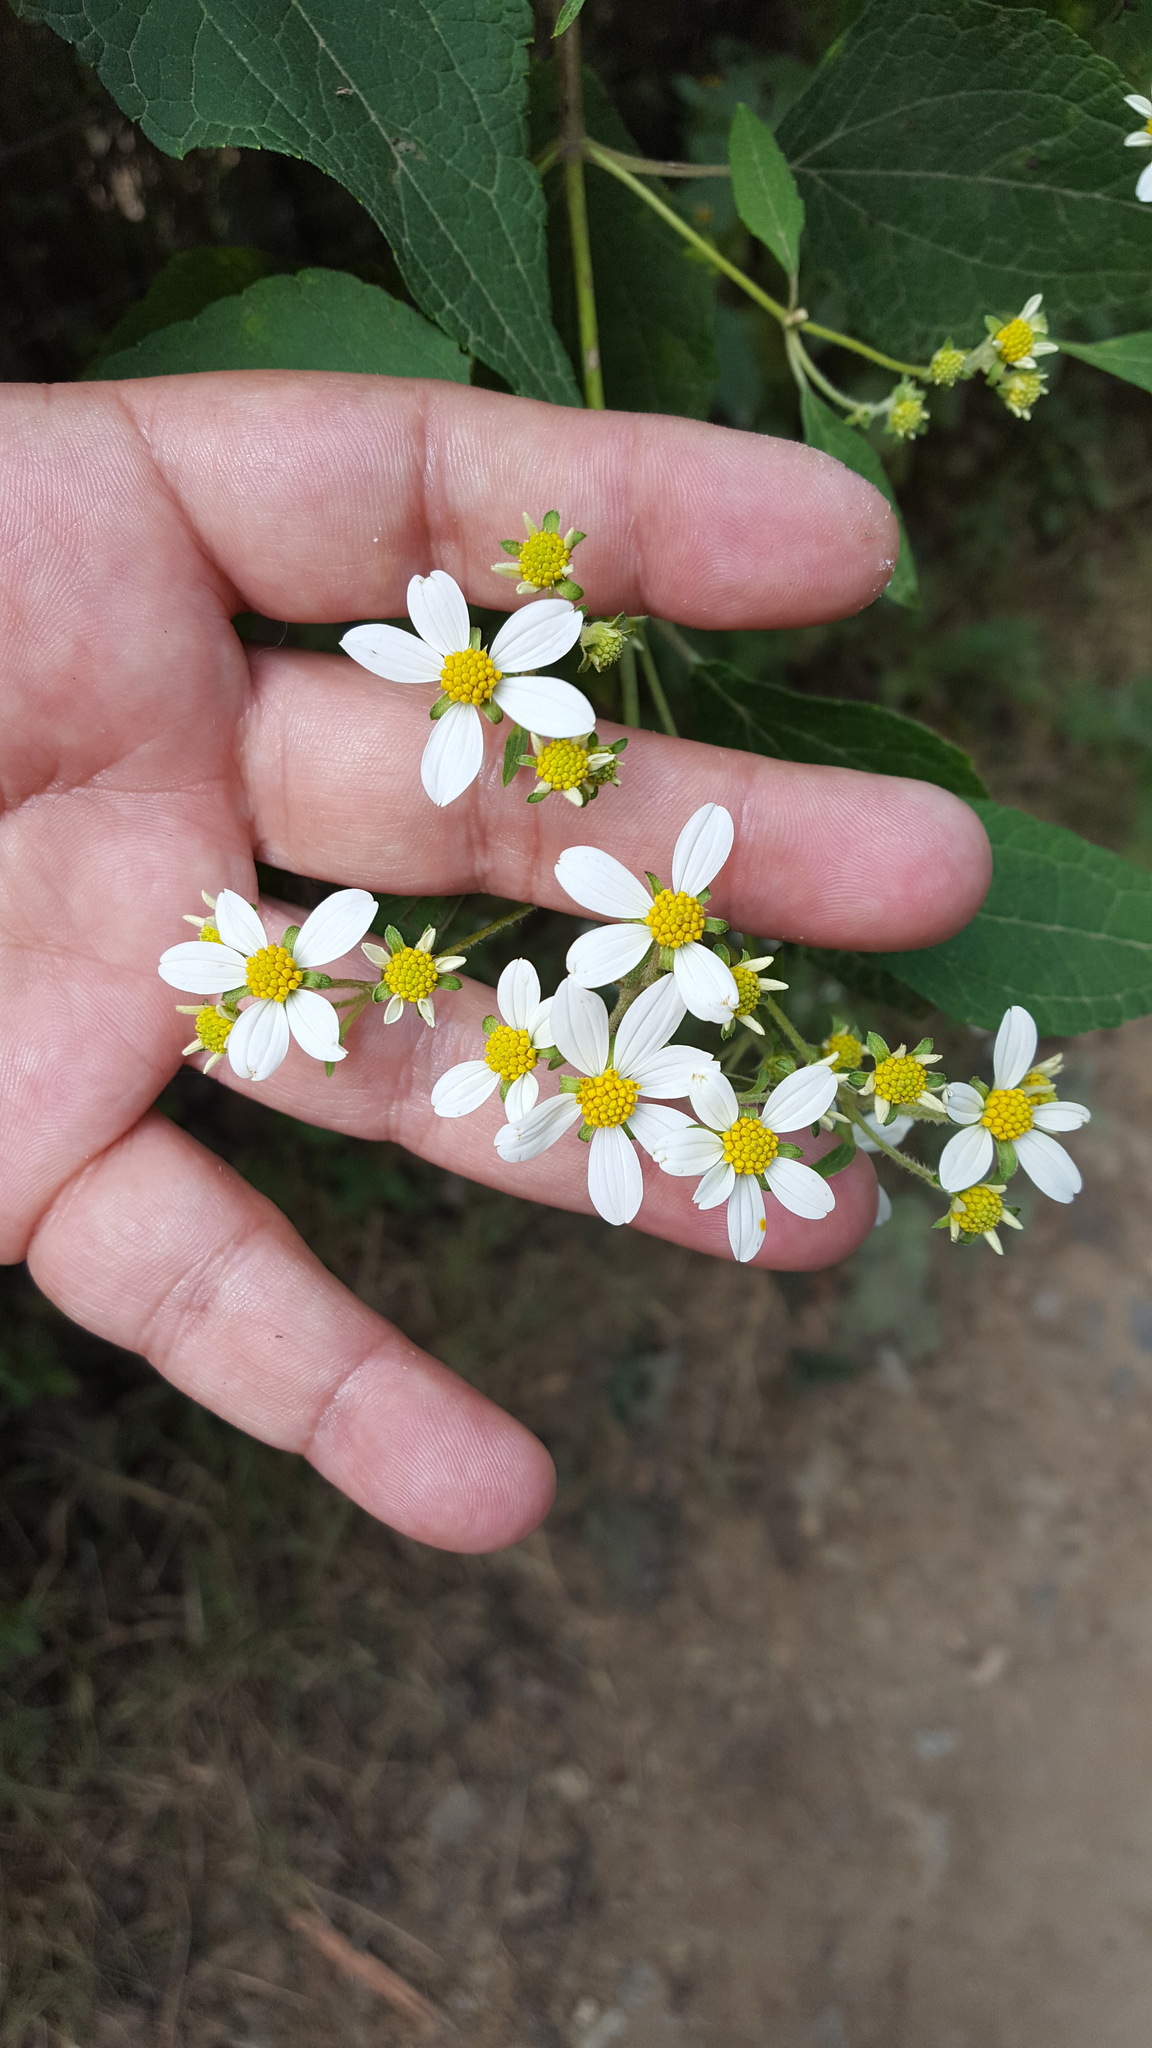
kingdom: Plantae
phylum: Tracheophyta
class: Magnoliopsida
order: Asterales
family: Asteraceae
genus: Montanoa
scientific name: Montanoa leucantha
